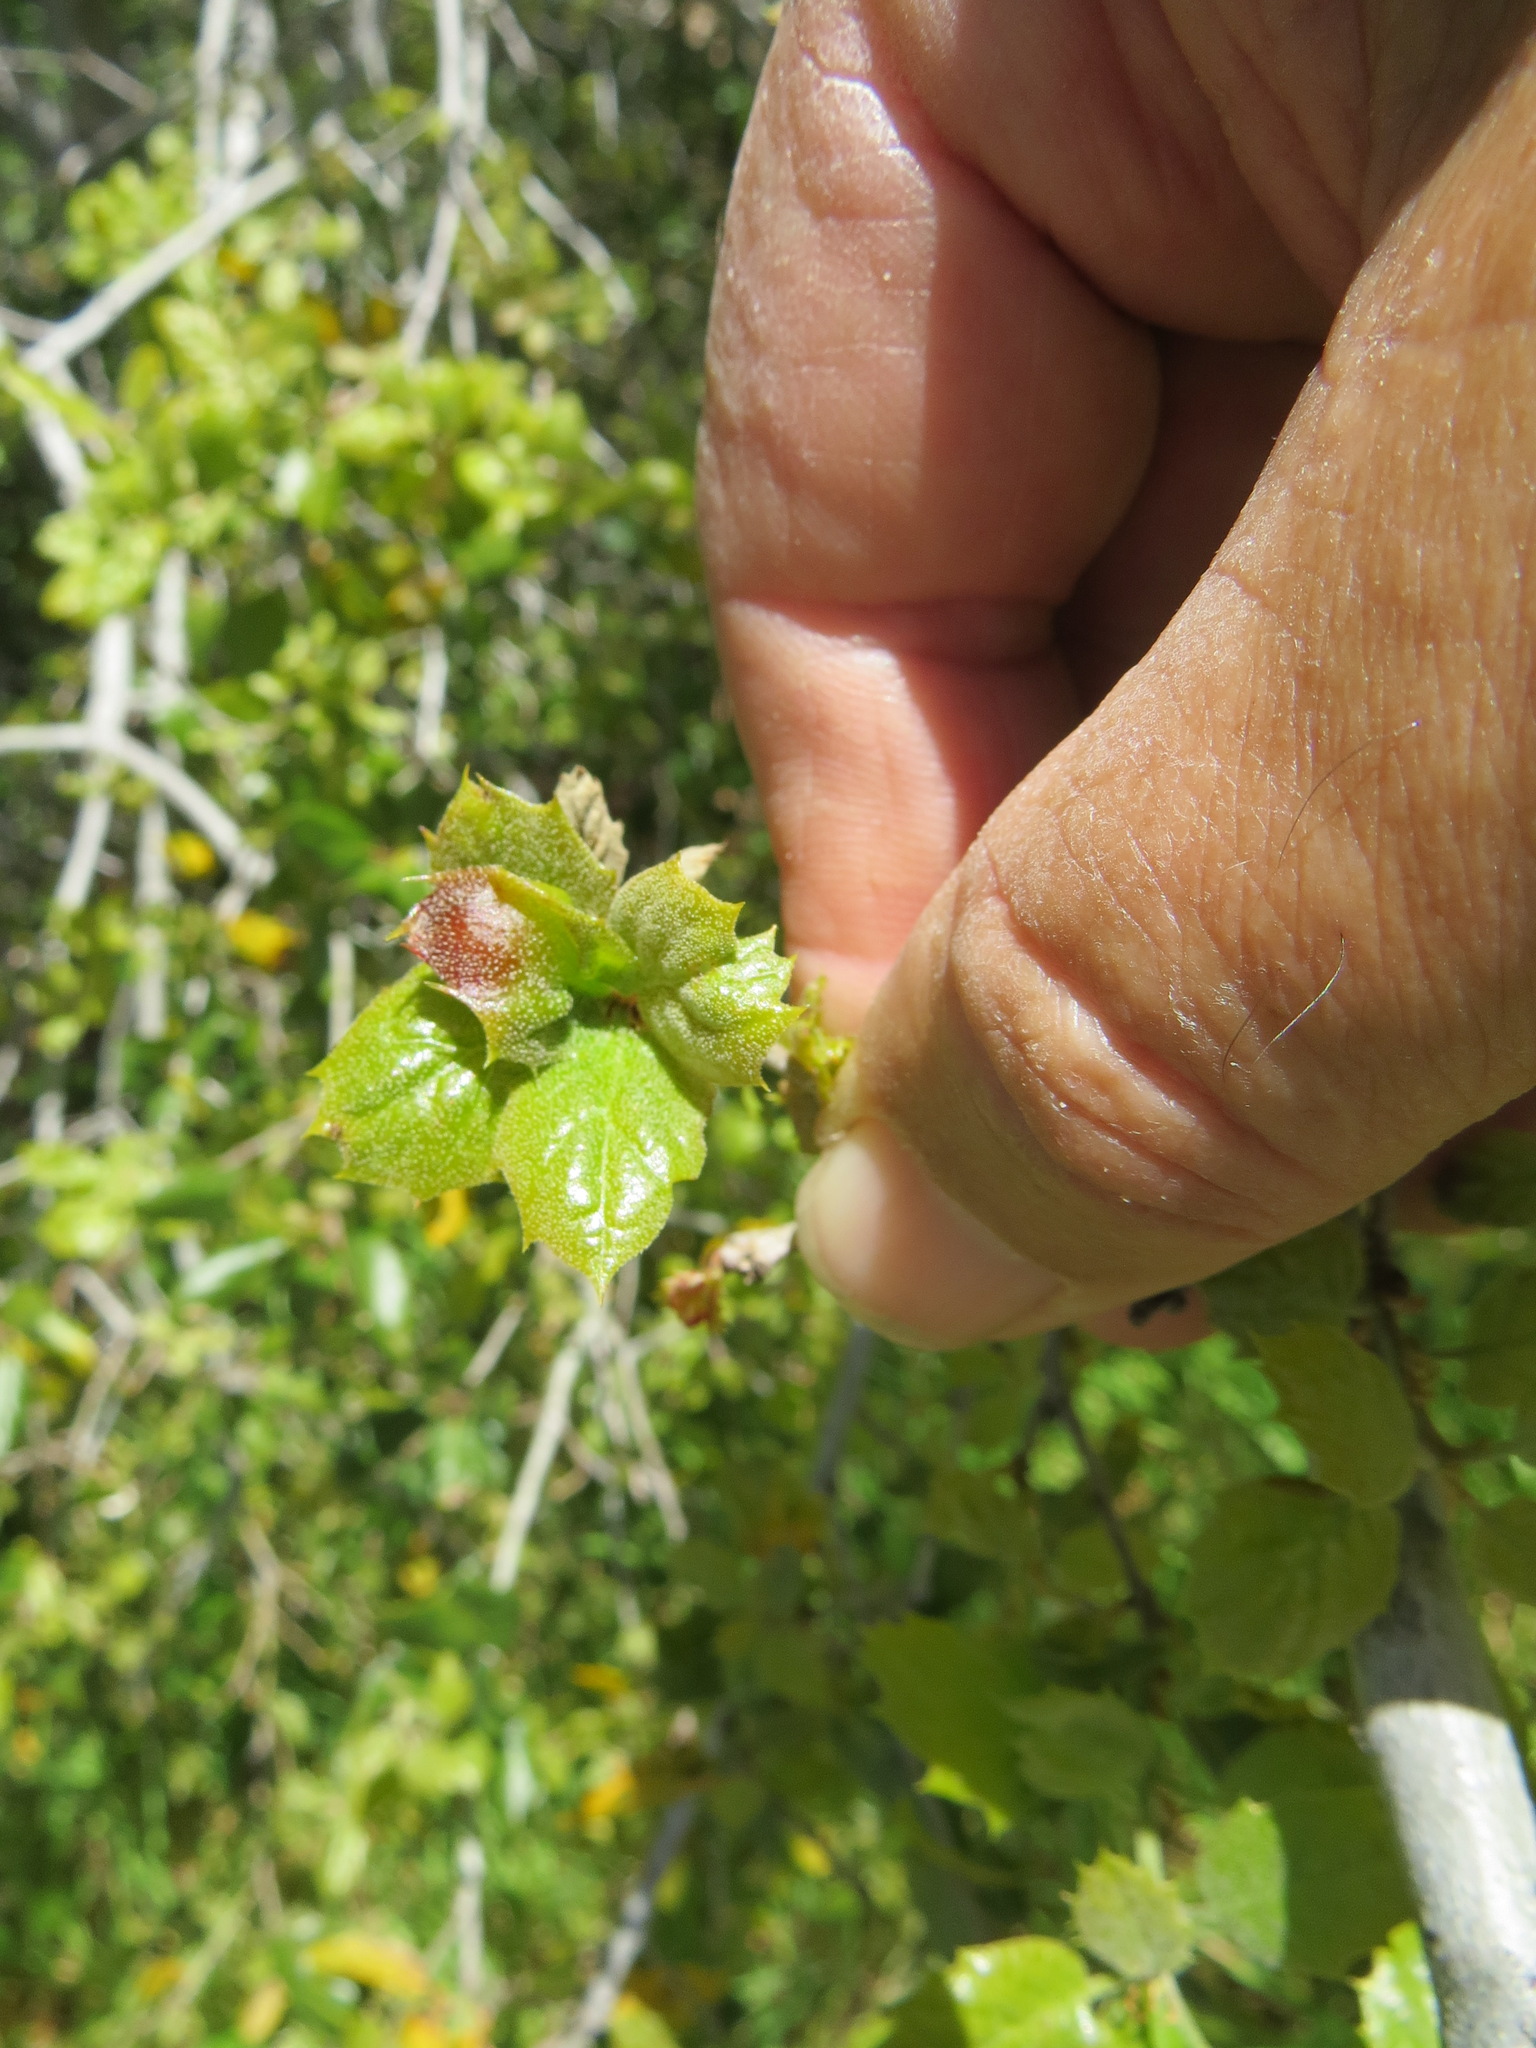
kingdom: Animalia
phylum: Arthropoda
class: Insecta
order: Hymenoptera
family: Cynipidae
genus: Callirhytis
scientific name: Callirhytis
